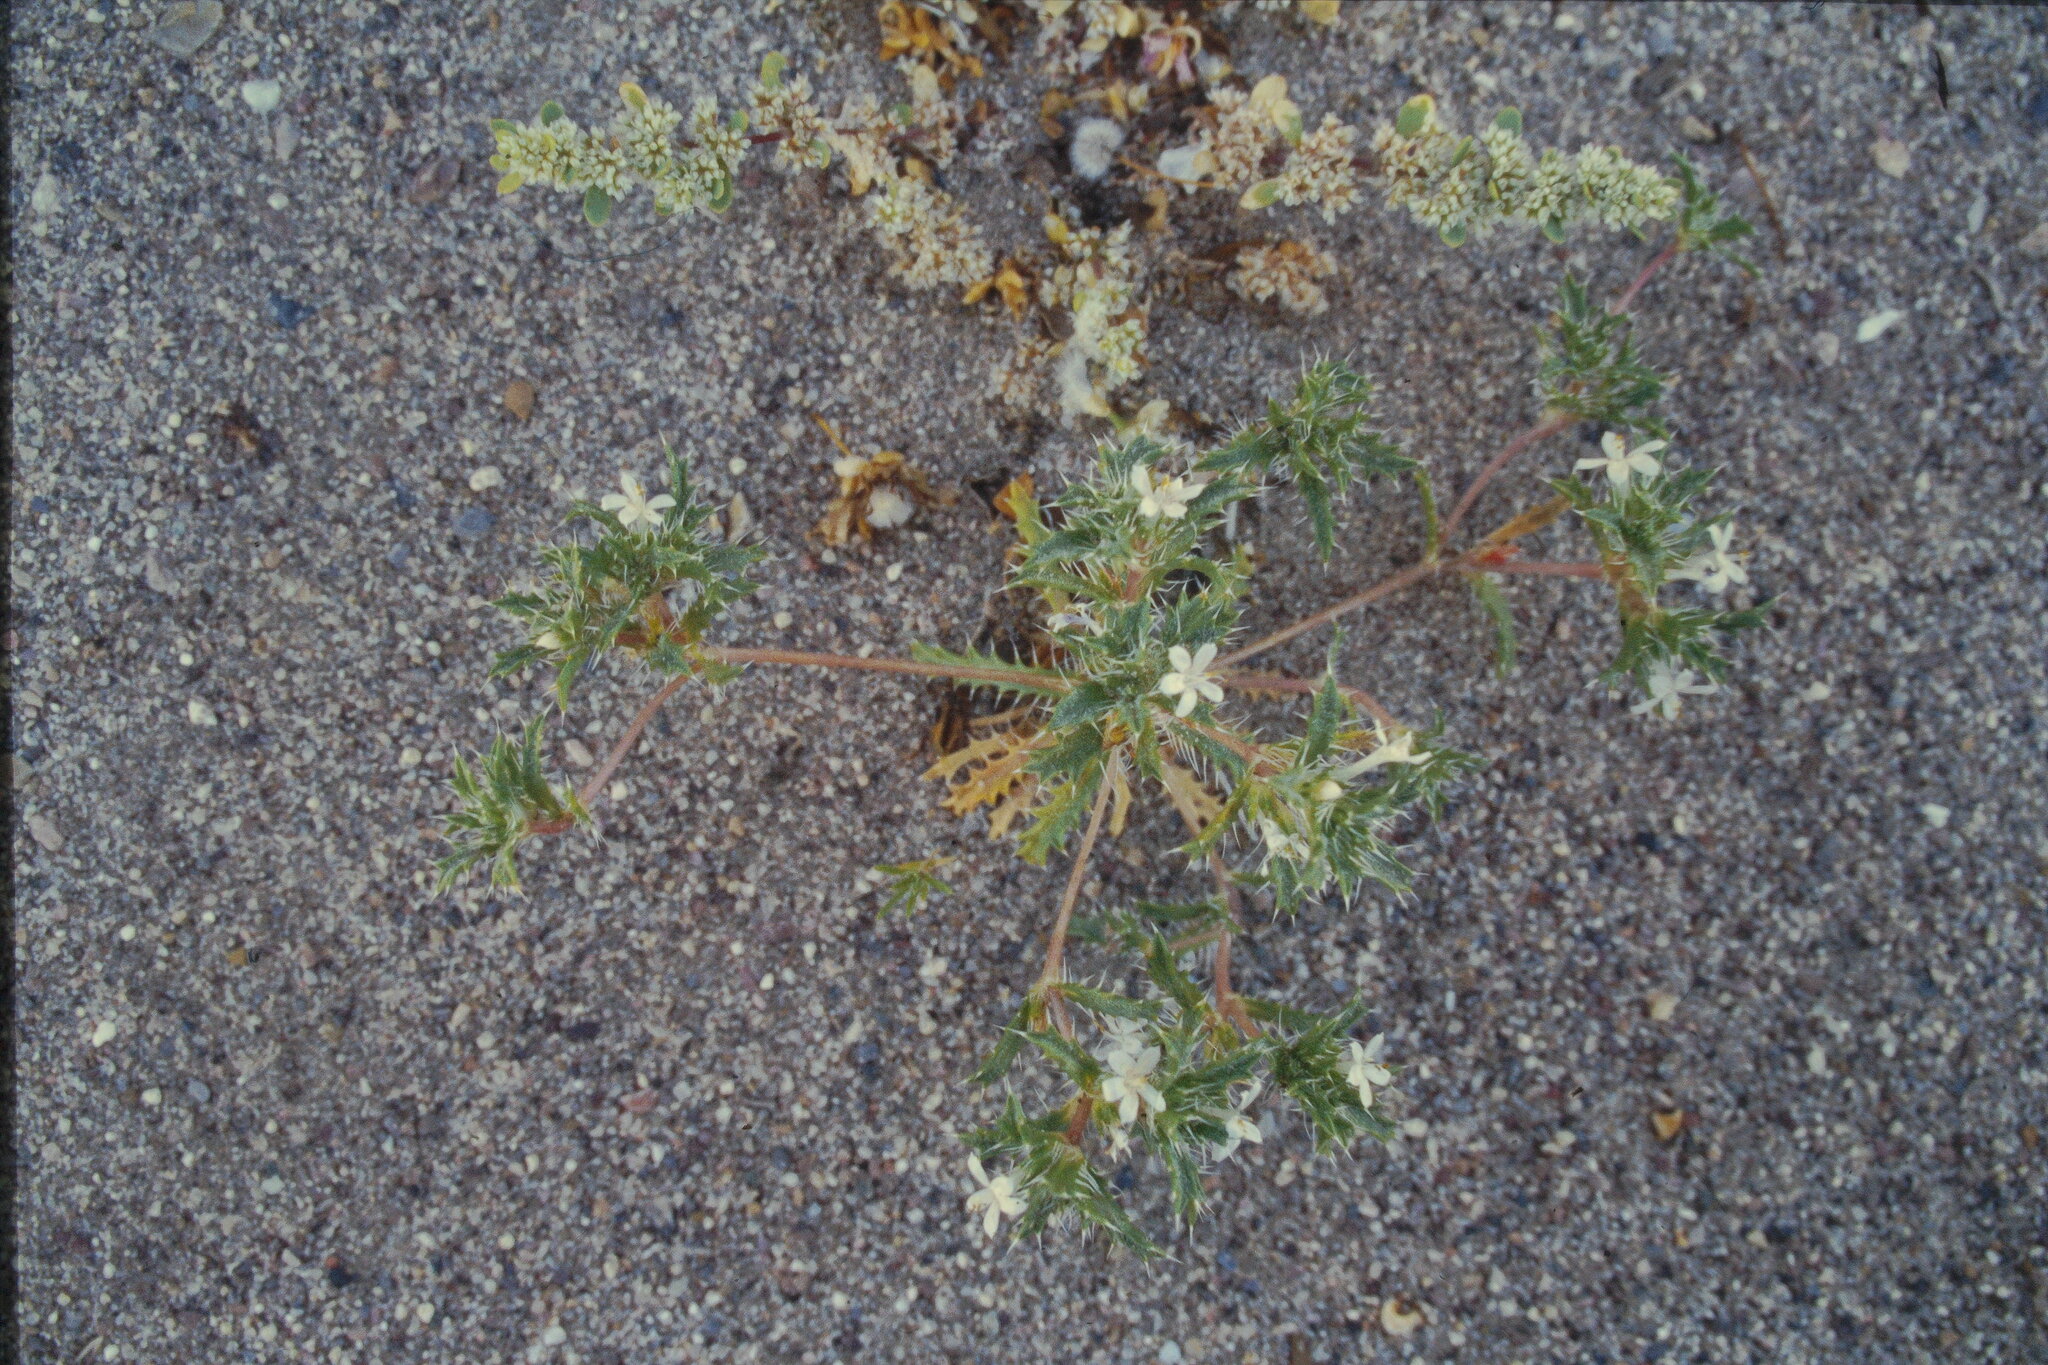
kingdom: Plantae
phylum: Tracheophyta
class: Magnoliopsida
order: Ericales
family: Polemoniaceae
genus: Loeseliastrum
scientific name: Loeseliastrum schottii
